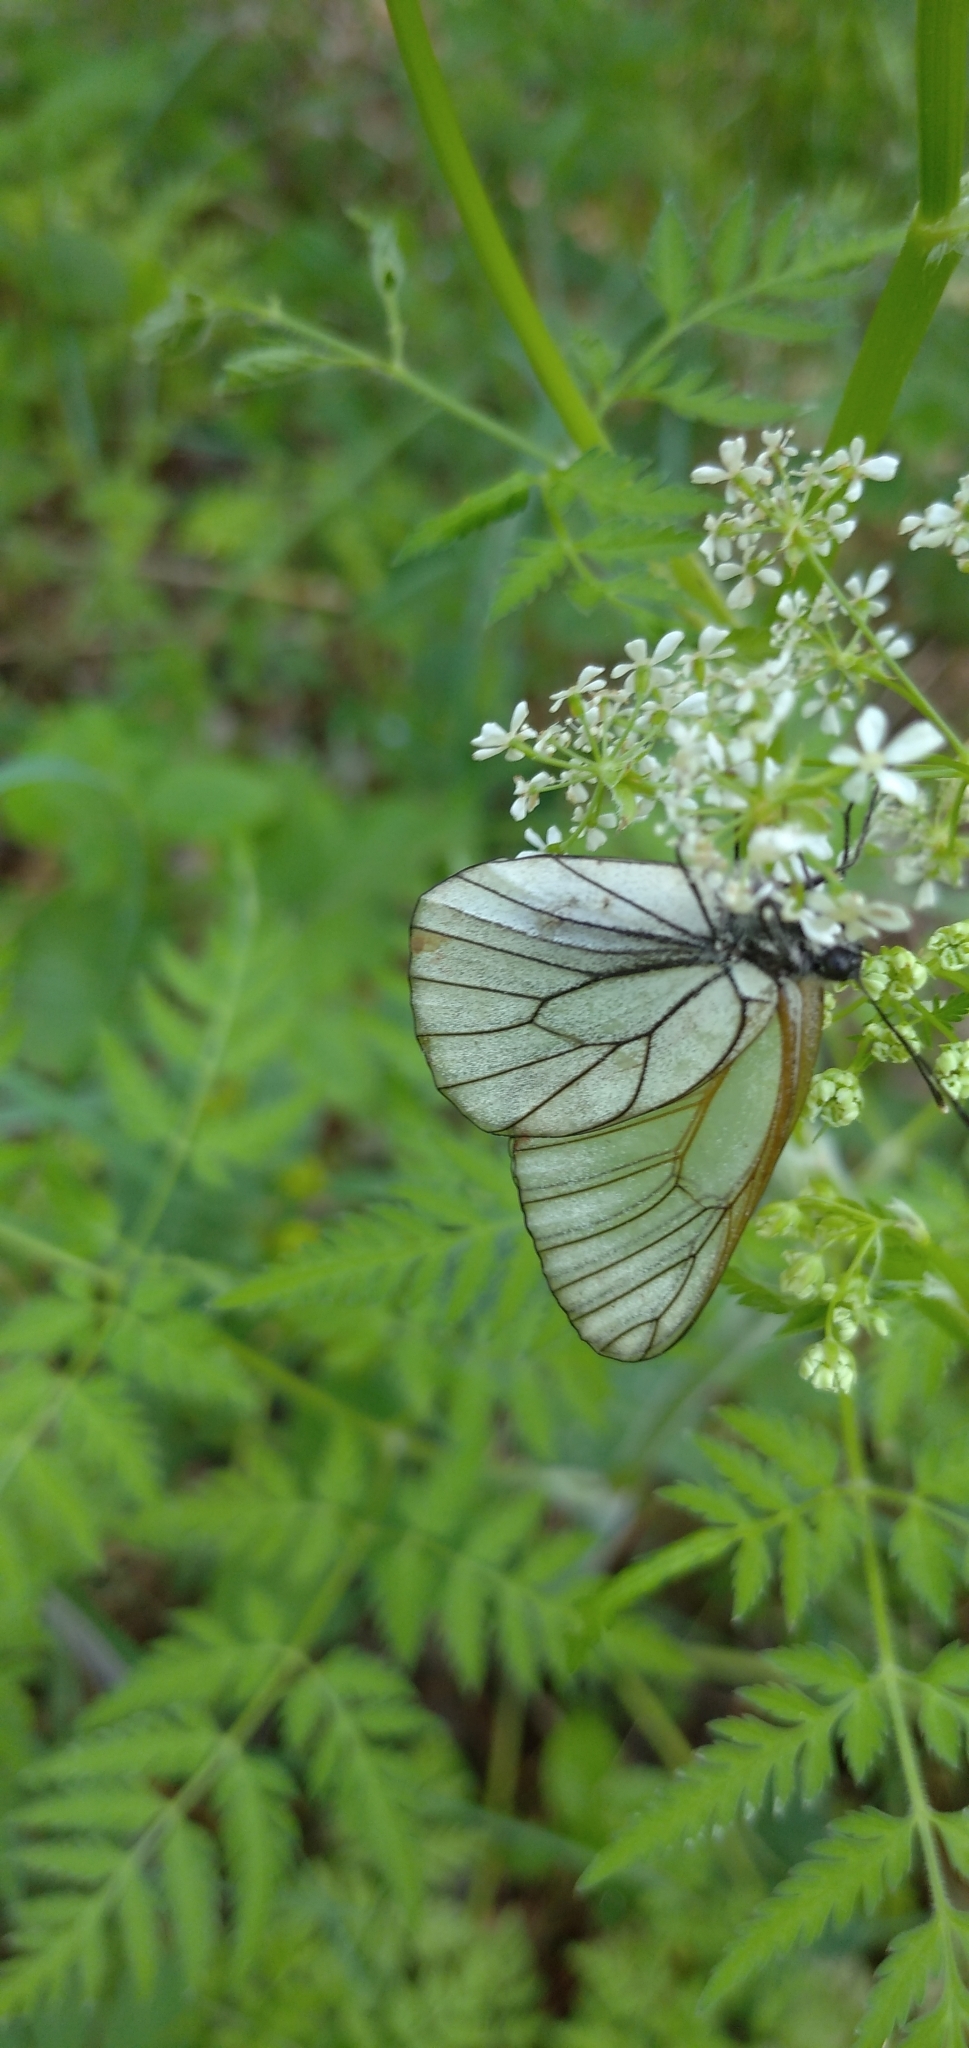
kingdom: Animalia
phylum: Arthropoda
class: Insecta
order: Lepidoptera
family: Pieridae
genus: Aporia
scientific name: Aporia crataegi
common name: Black-veined white
